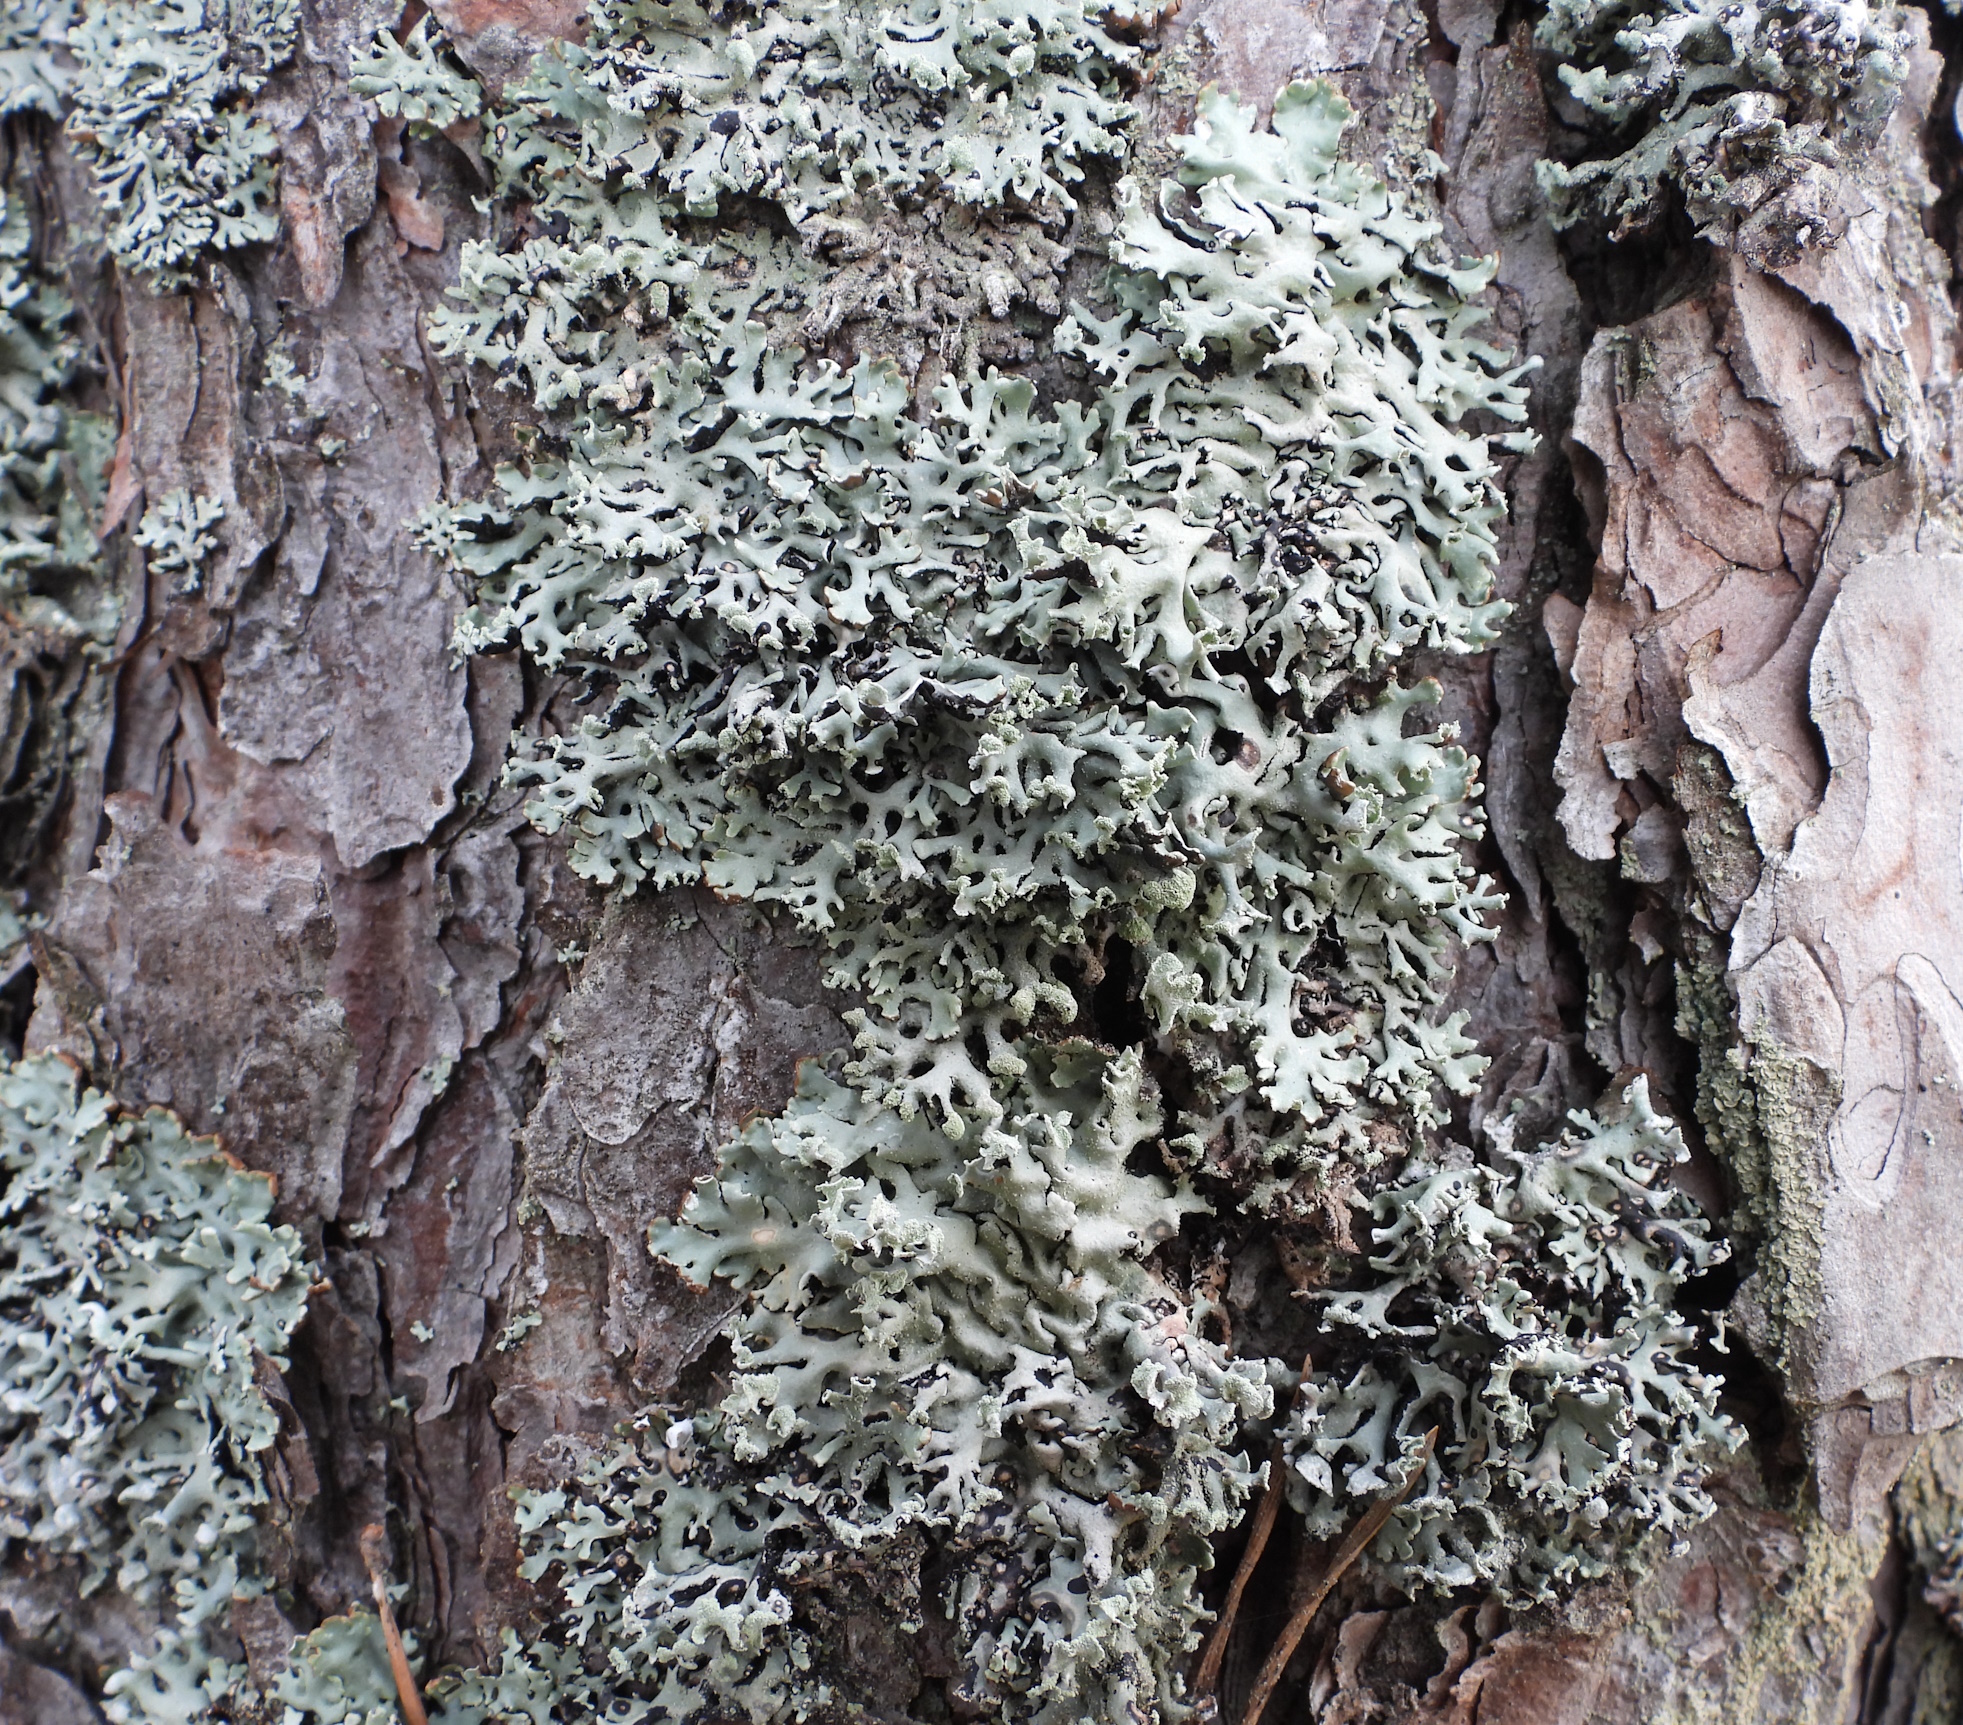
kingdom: Fungi
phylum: Ascomycota
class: Lecanoromycetes
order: Lecanorales
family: Parmeliaceae
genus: Hypogymnia
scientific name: Hypogymnia physodes
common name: Dark crottle
